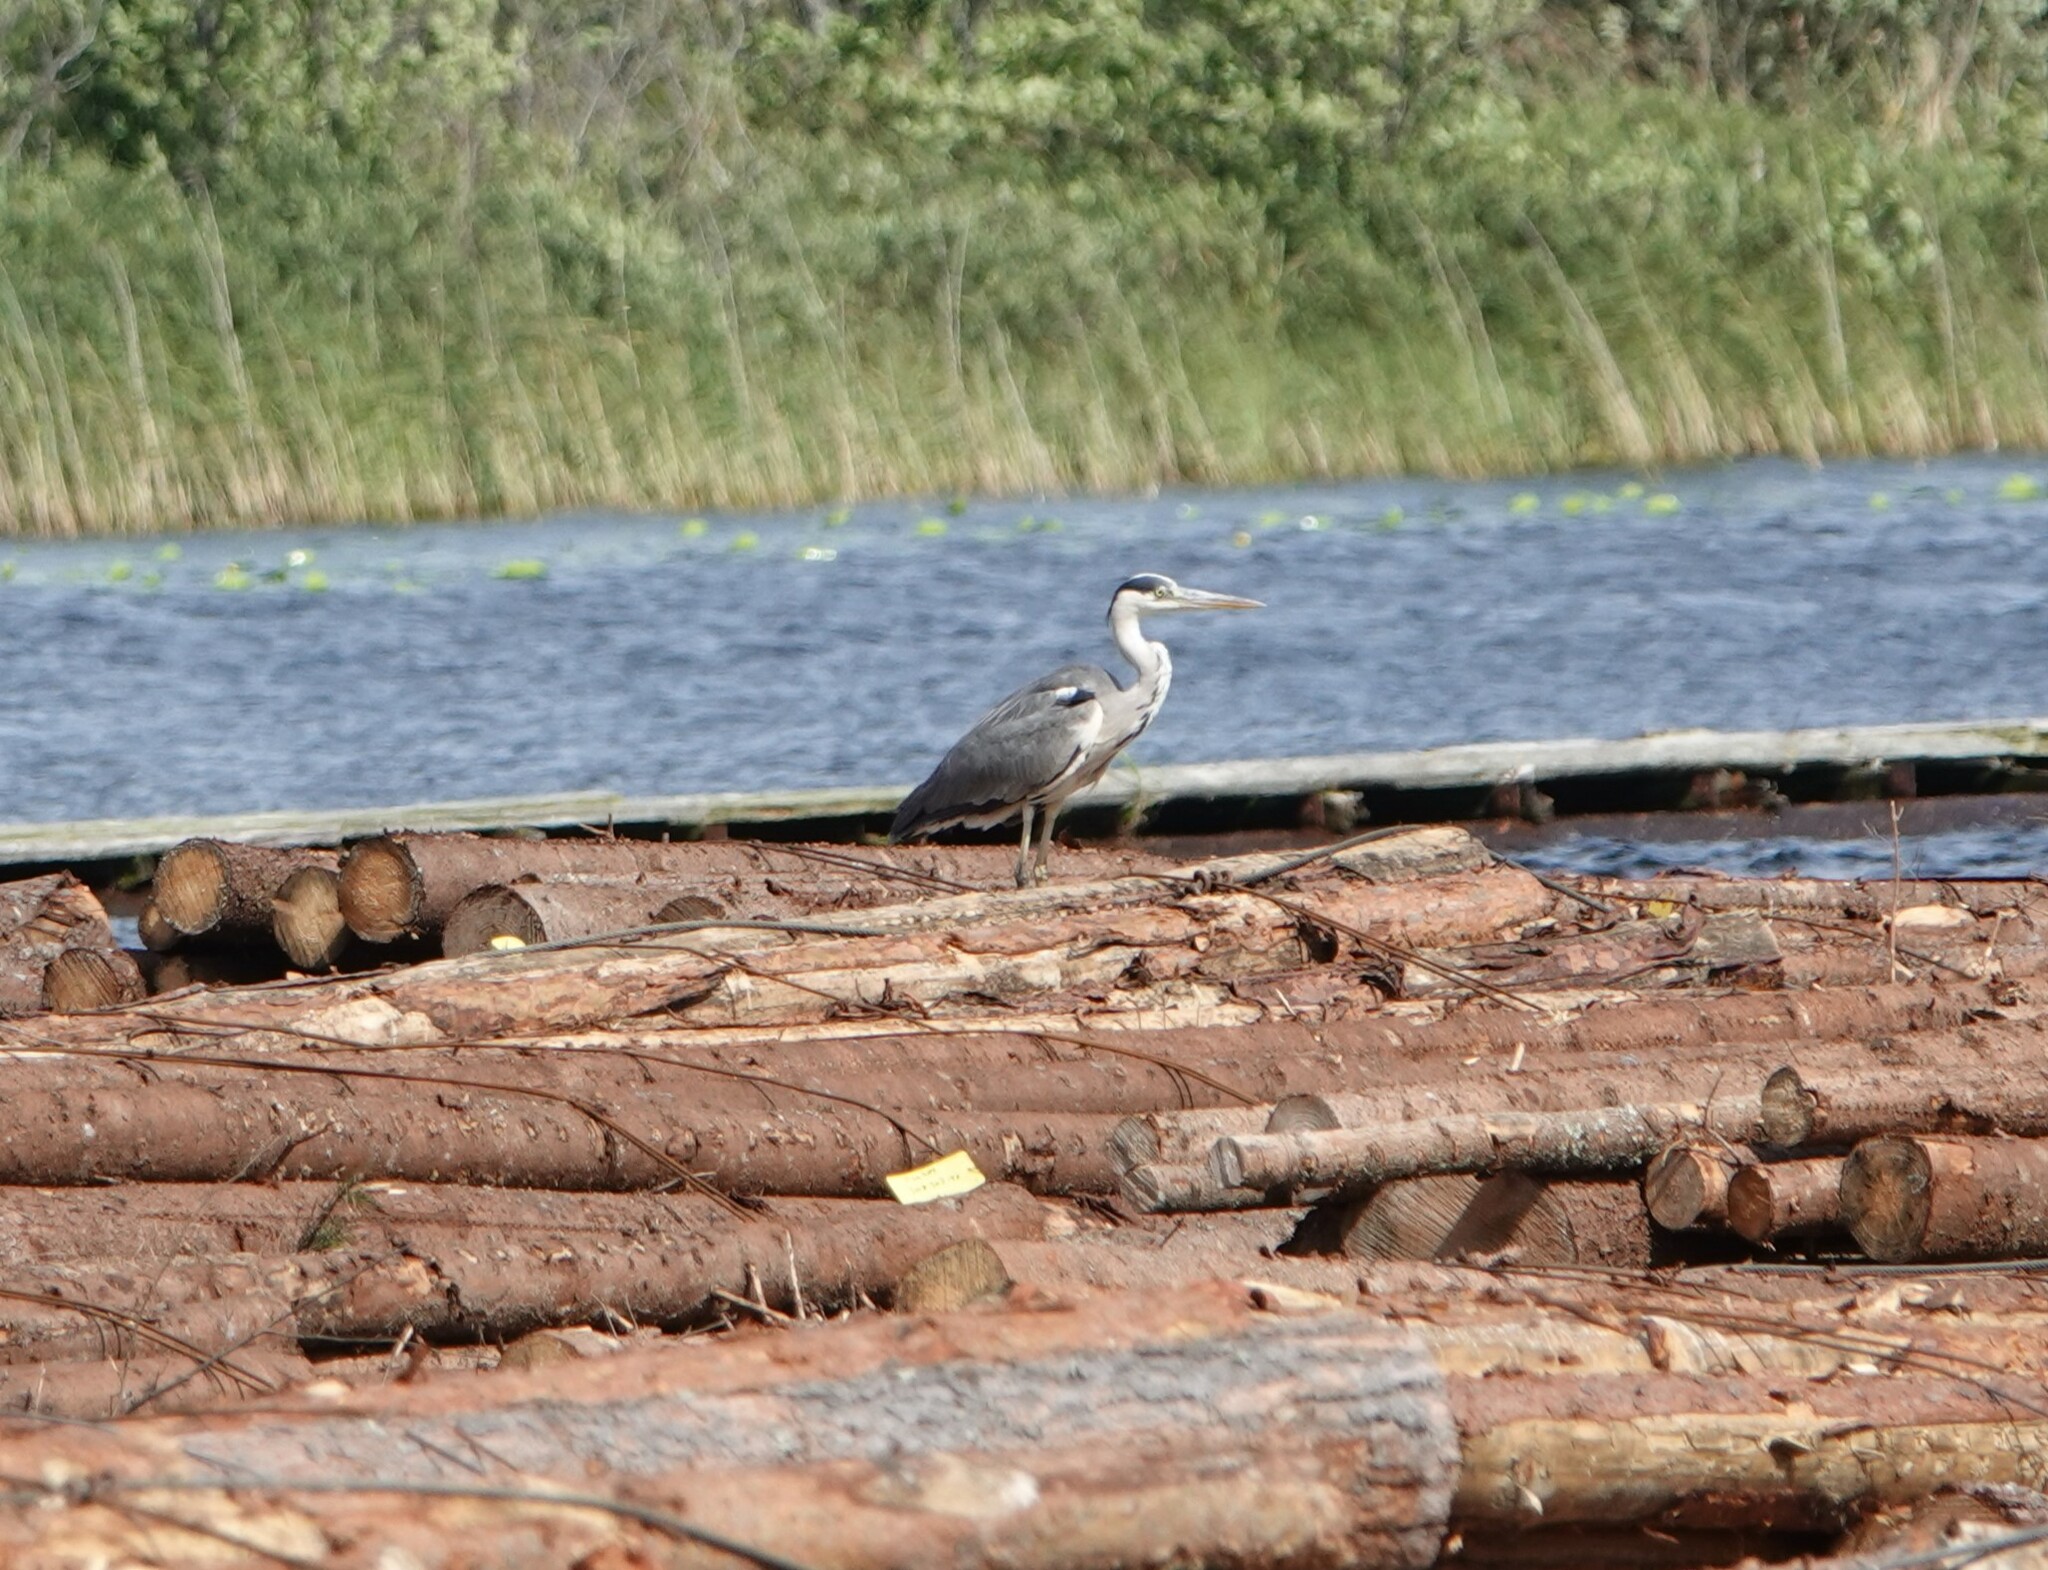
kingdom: Animalia
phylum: Chordata
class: Aves
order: Pelecaniformes
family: Ardeidae
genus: Ardea
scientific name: Ardea cinerea
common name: Grey heron
